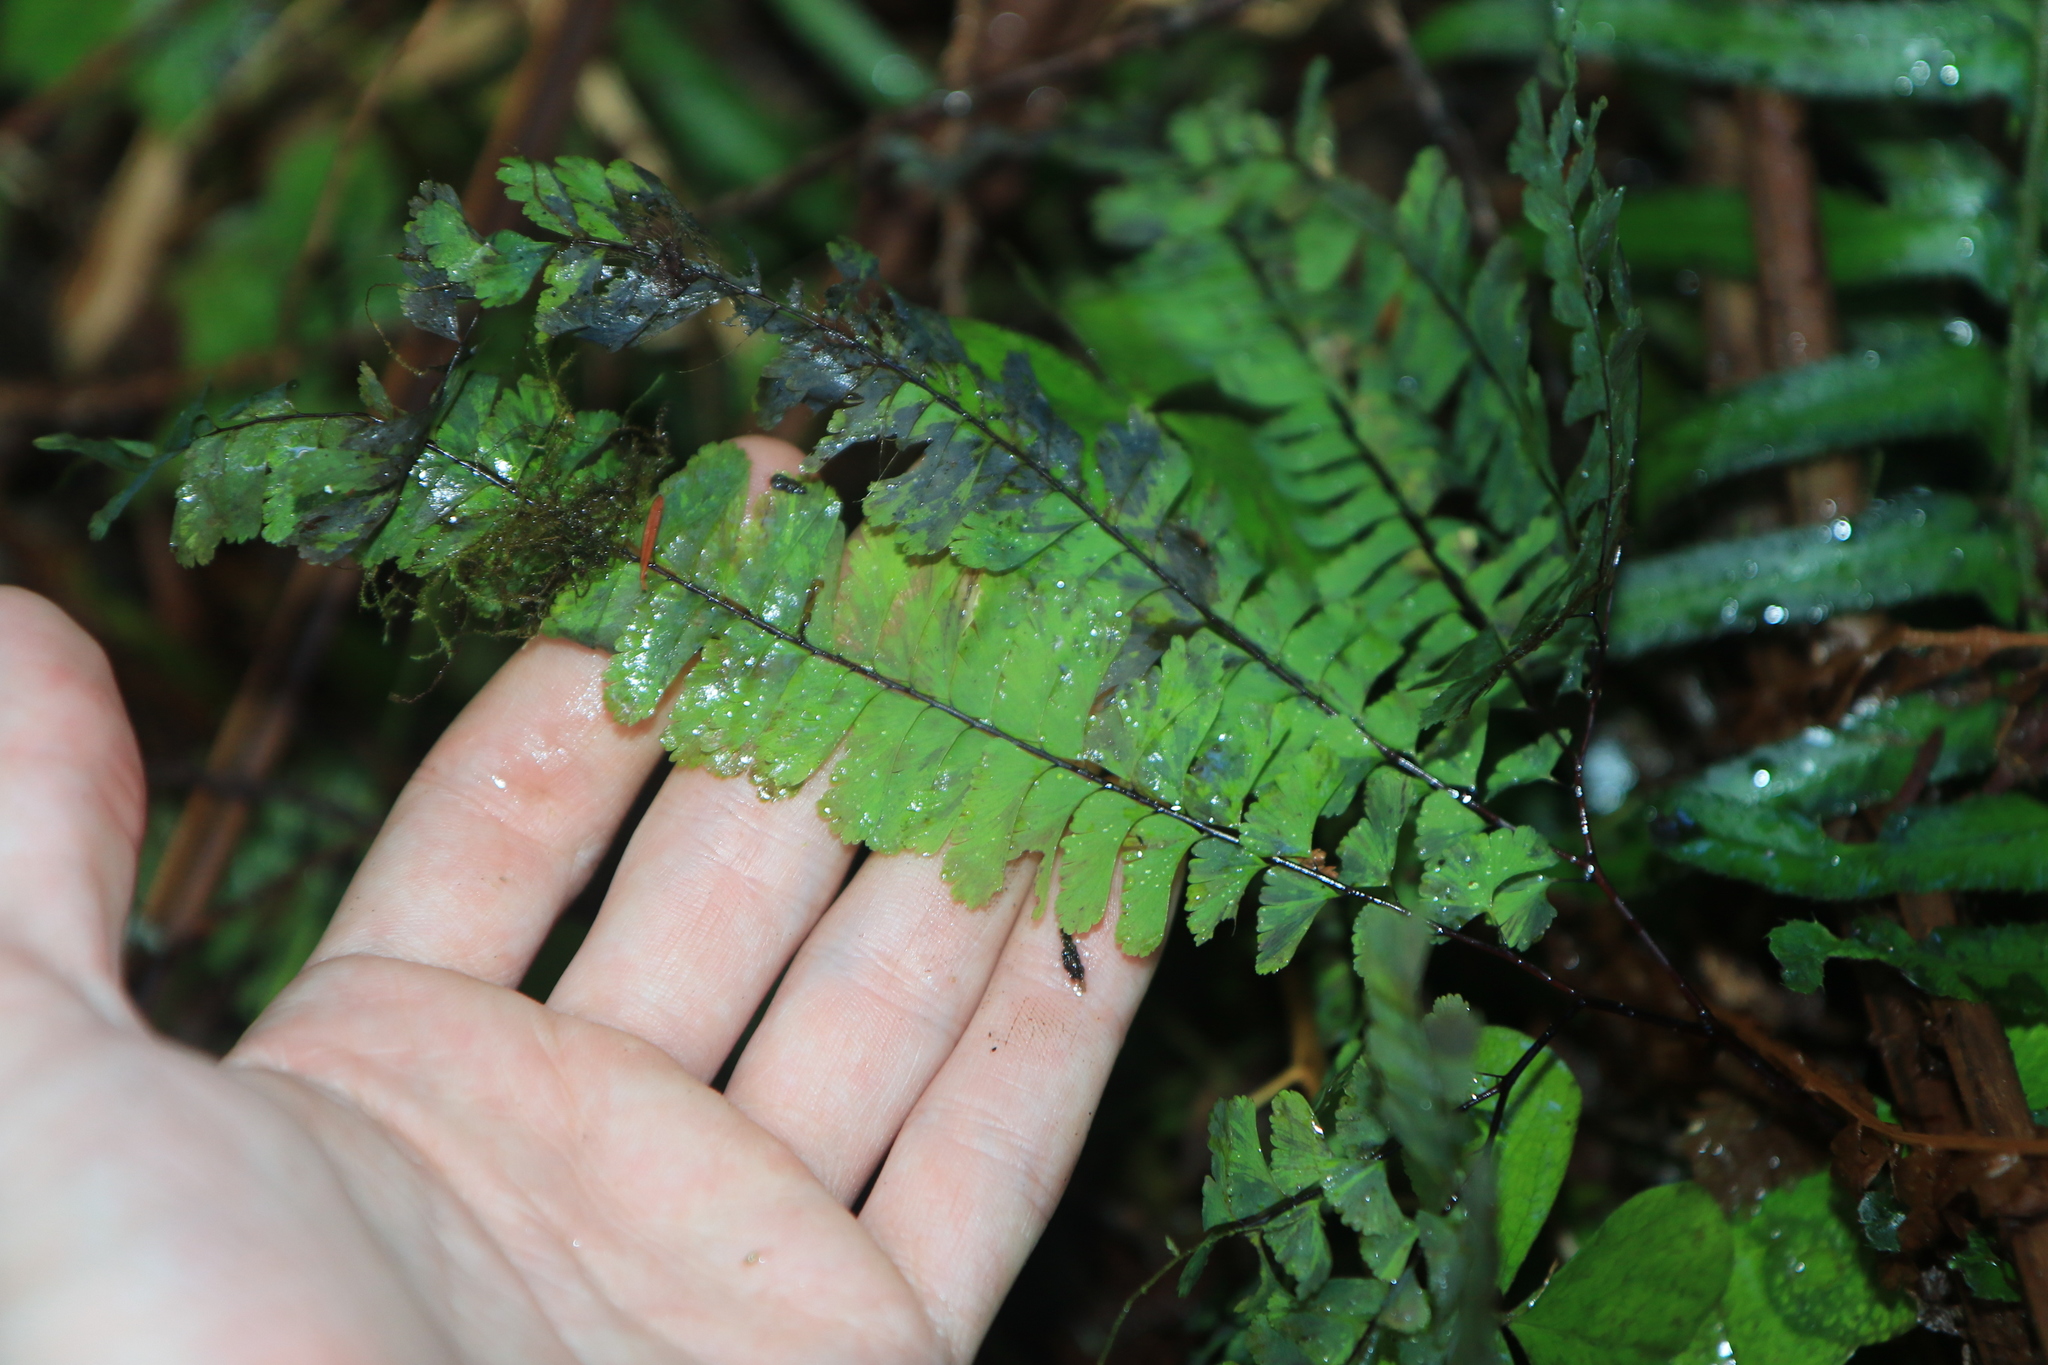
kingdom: Plantae
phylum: Tracheophyta
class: Polypodiopsida
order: Polypodiales
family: Pteridaceae
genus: Adiantum
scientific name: Adiantum aleuticum
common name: Aleutian maidenhair fern
